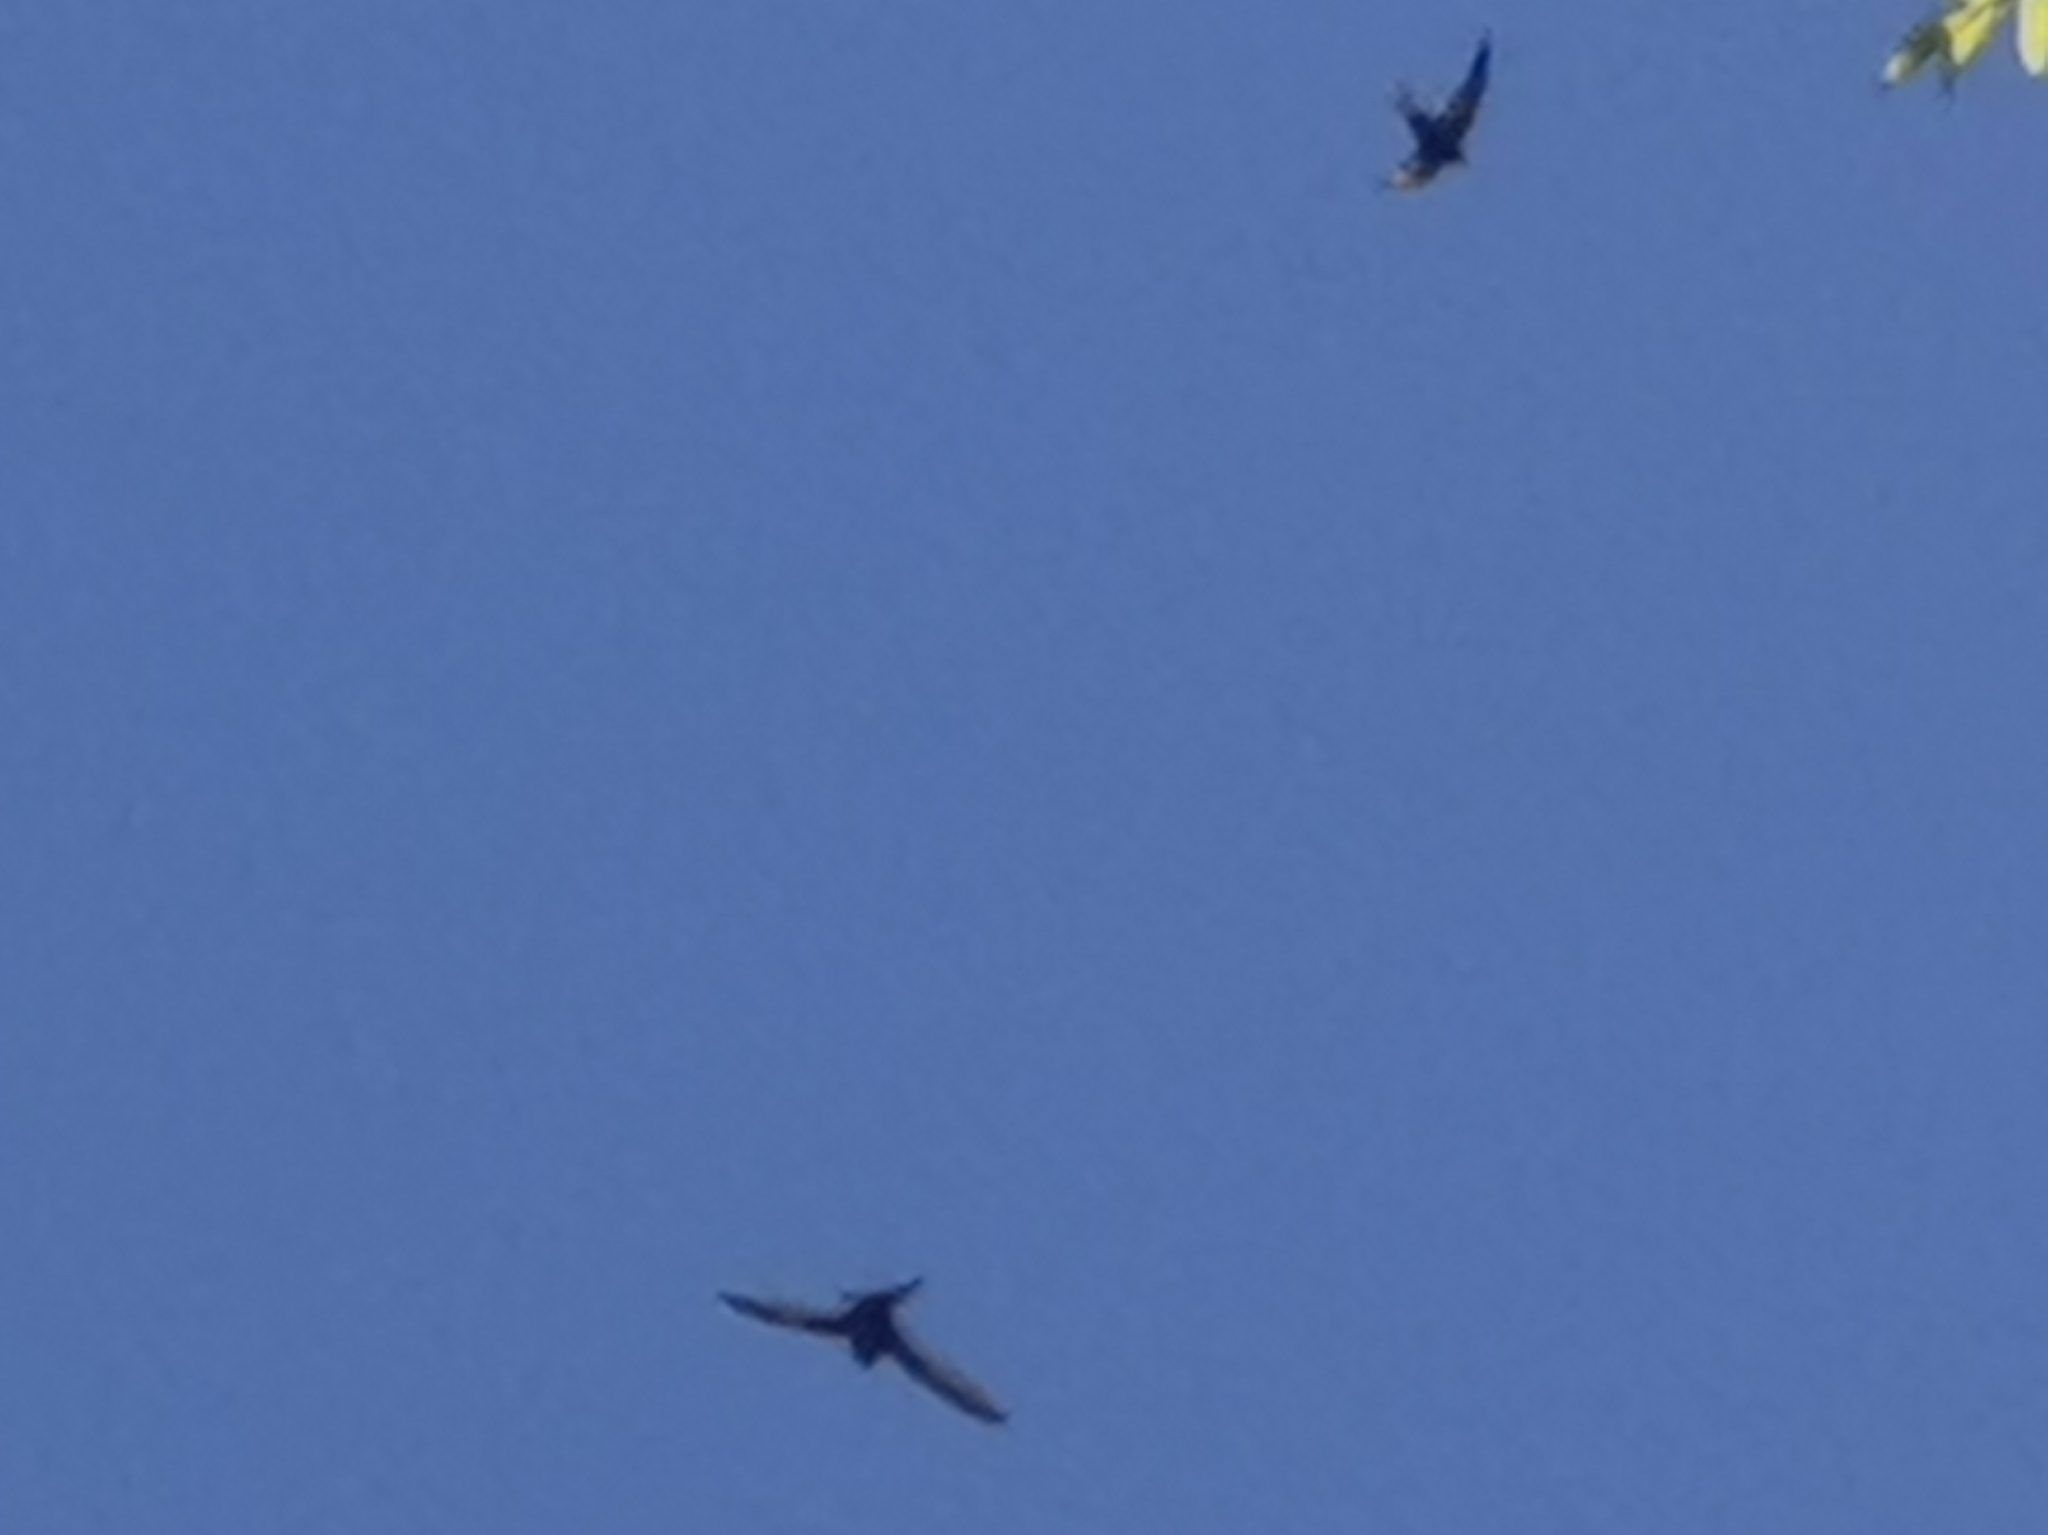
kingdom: Animalia
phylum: Chordata
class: Aves
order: Apodiformes
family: Apodidae
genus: Apus
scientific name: Apus apus
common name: Common swift
